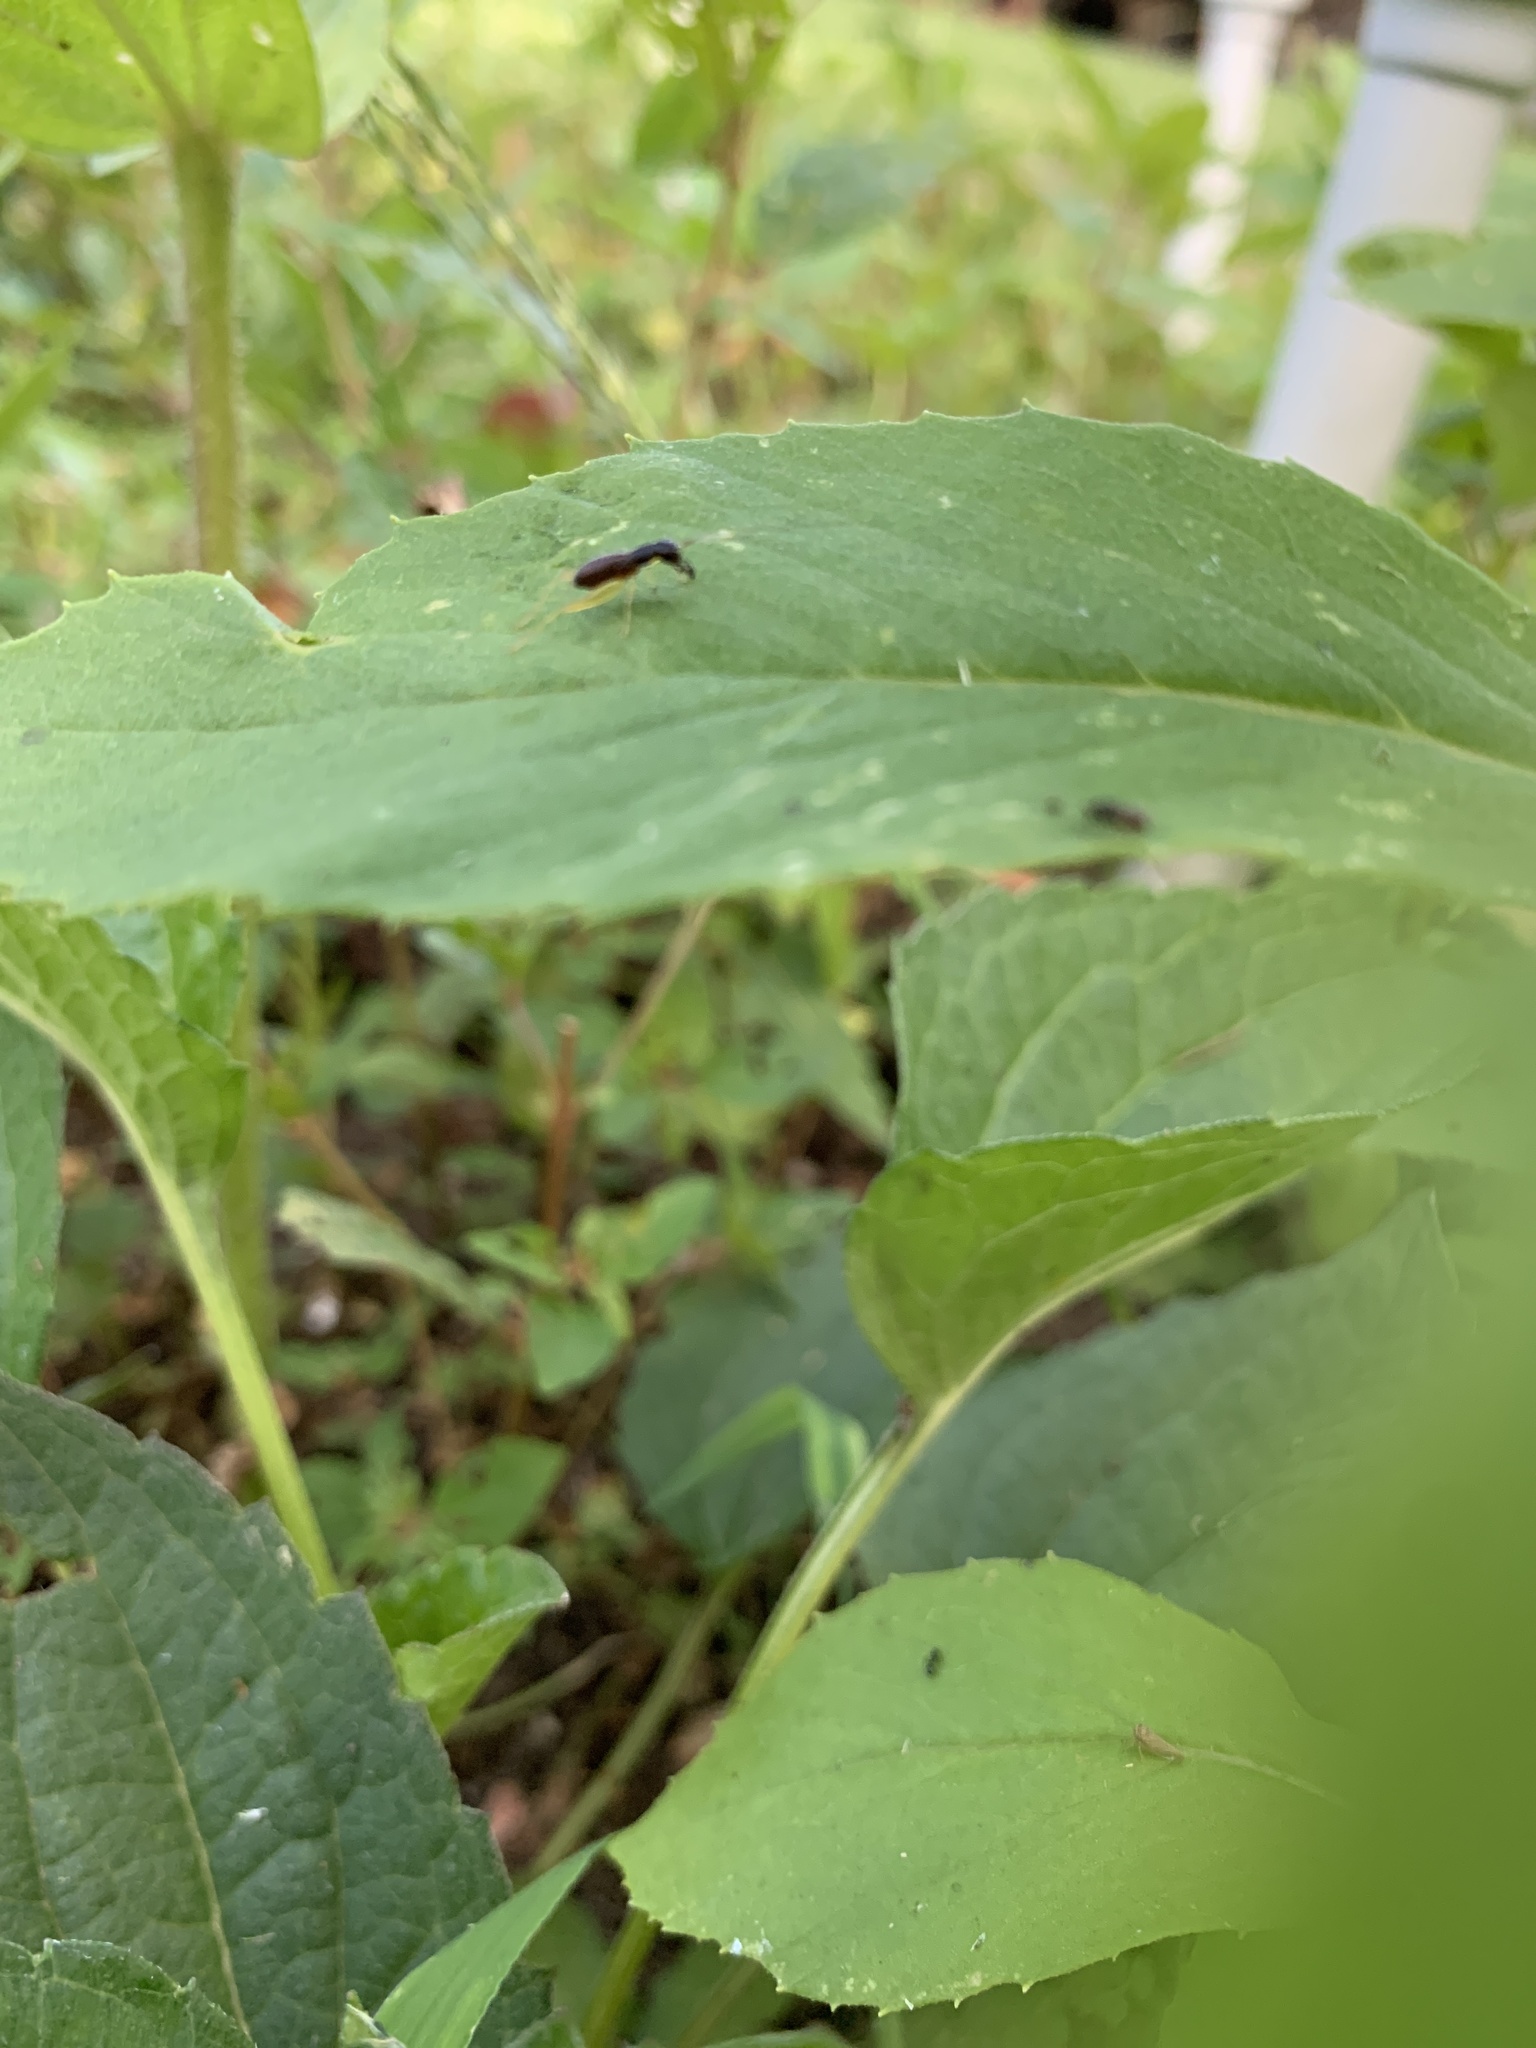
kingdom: Animalia
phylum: Arthropoda
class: Insecta
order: Orthoptera
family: Trigonidiidae
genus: Phyllopalpus
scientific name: Phyllopalpus pulchellus
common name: Handsome trig
